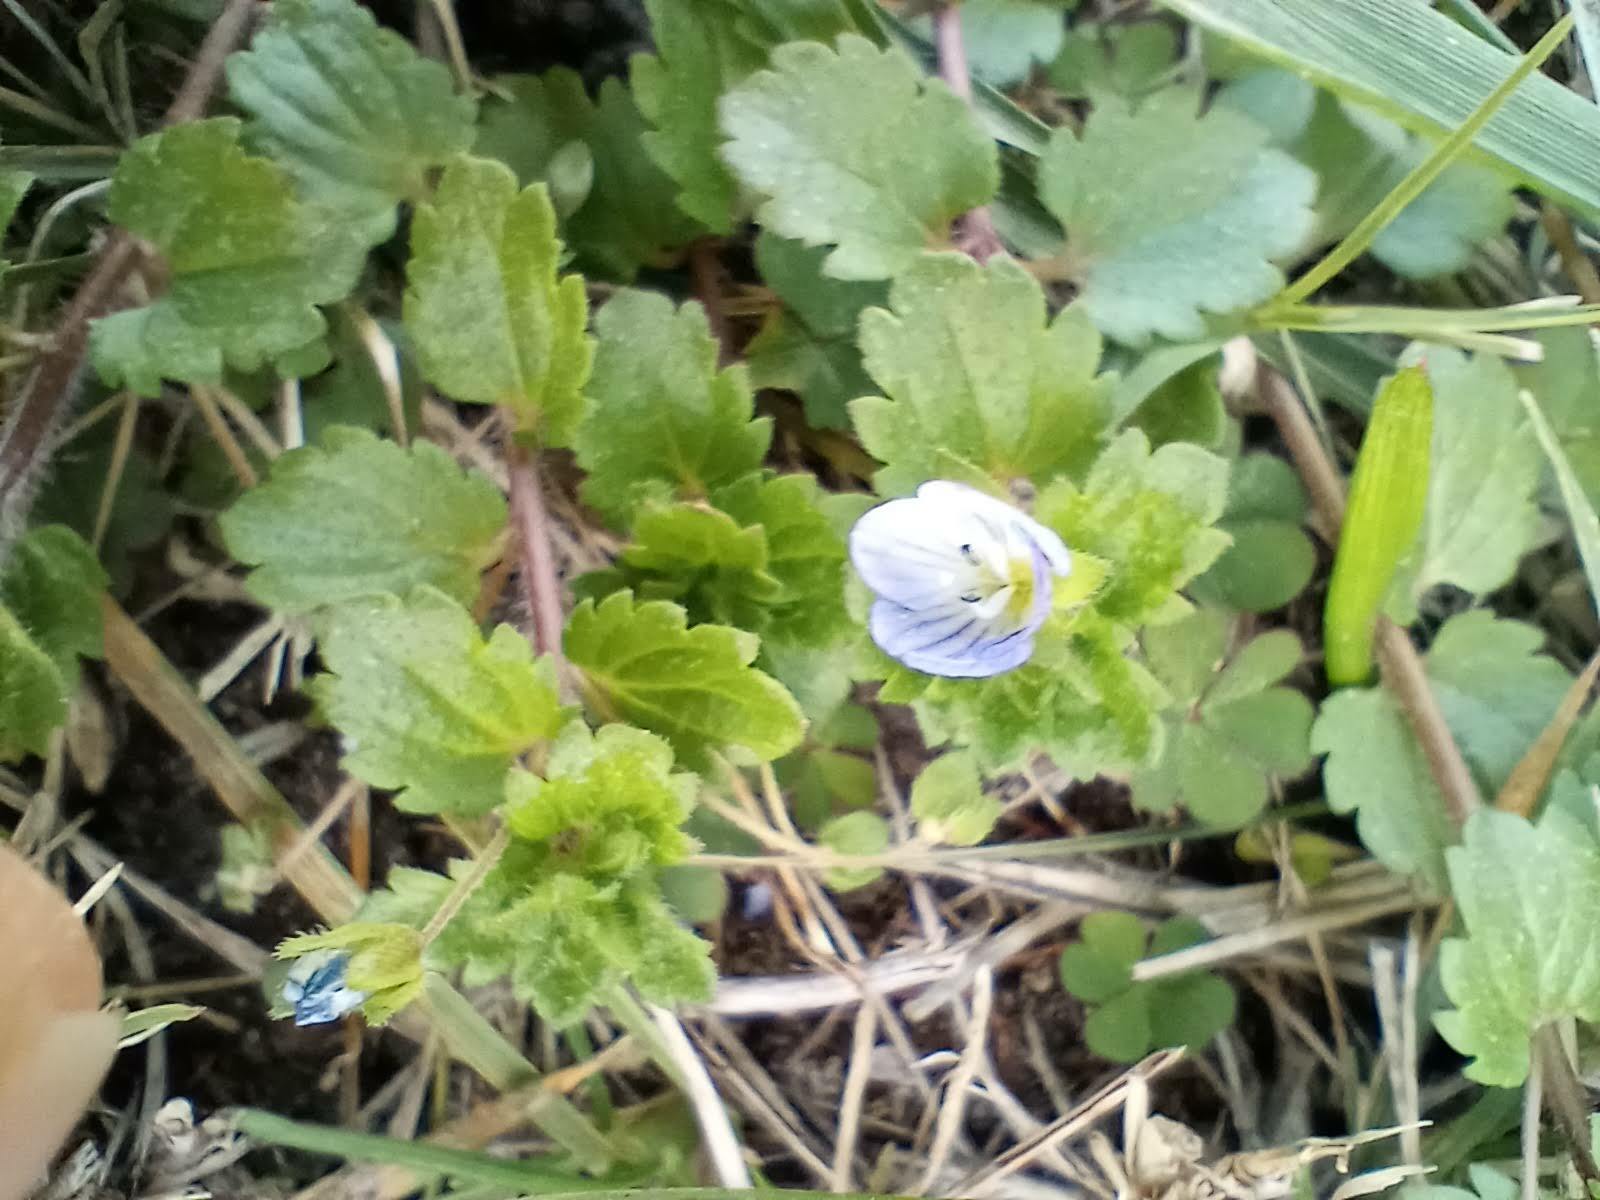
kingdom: Plantae
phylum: Tracheophyta
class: Magnoliopsida
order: Lamiales
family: Plantaginaceae
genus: Veronica
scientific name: Veronica persica
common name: Common field-speedwell
